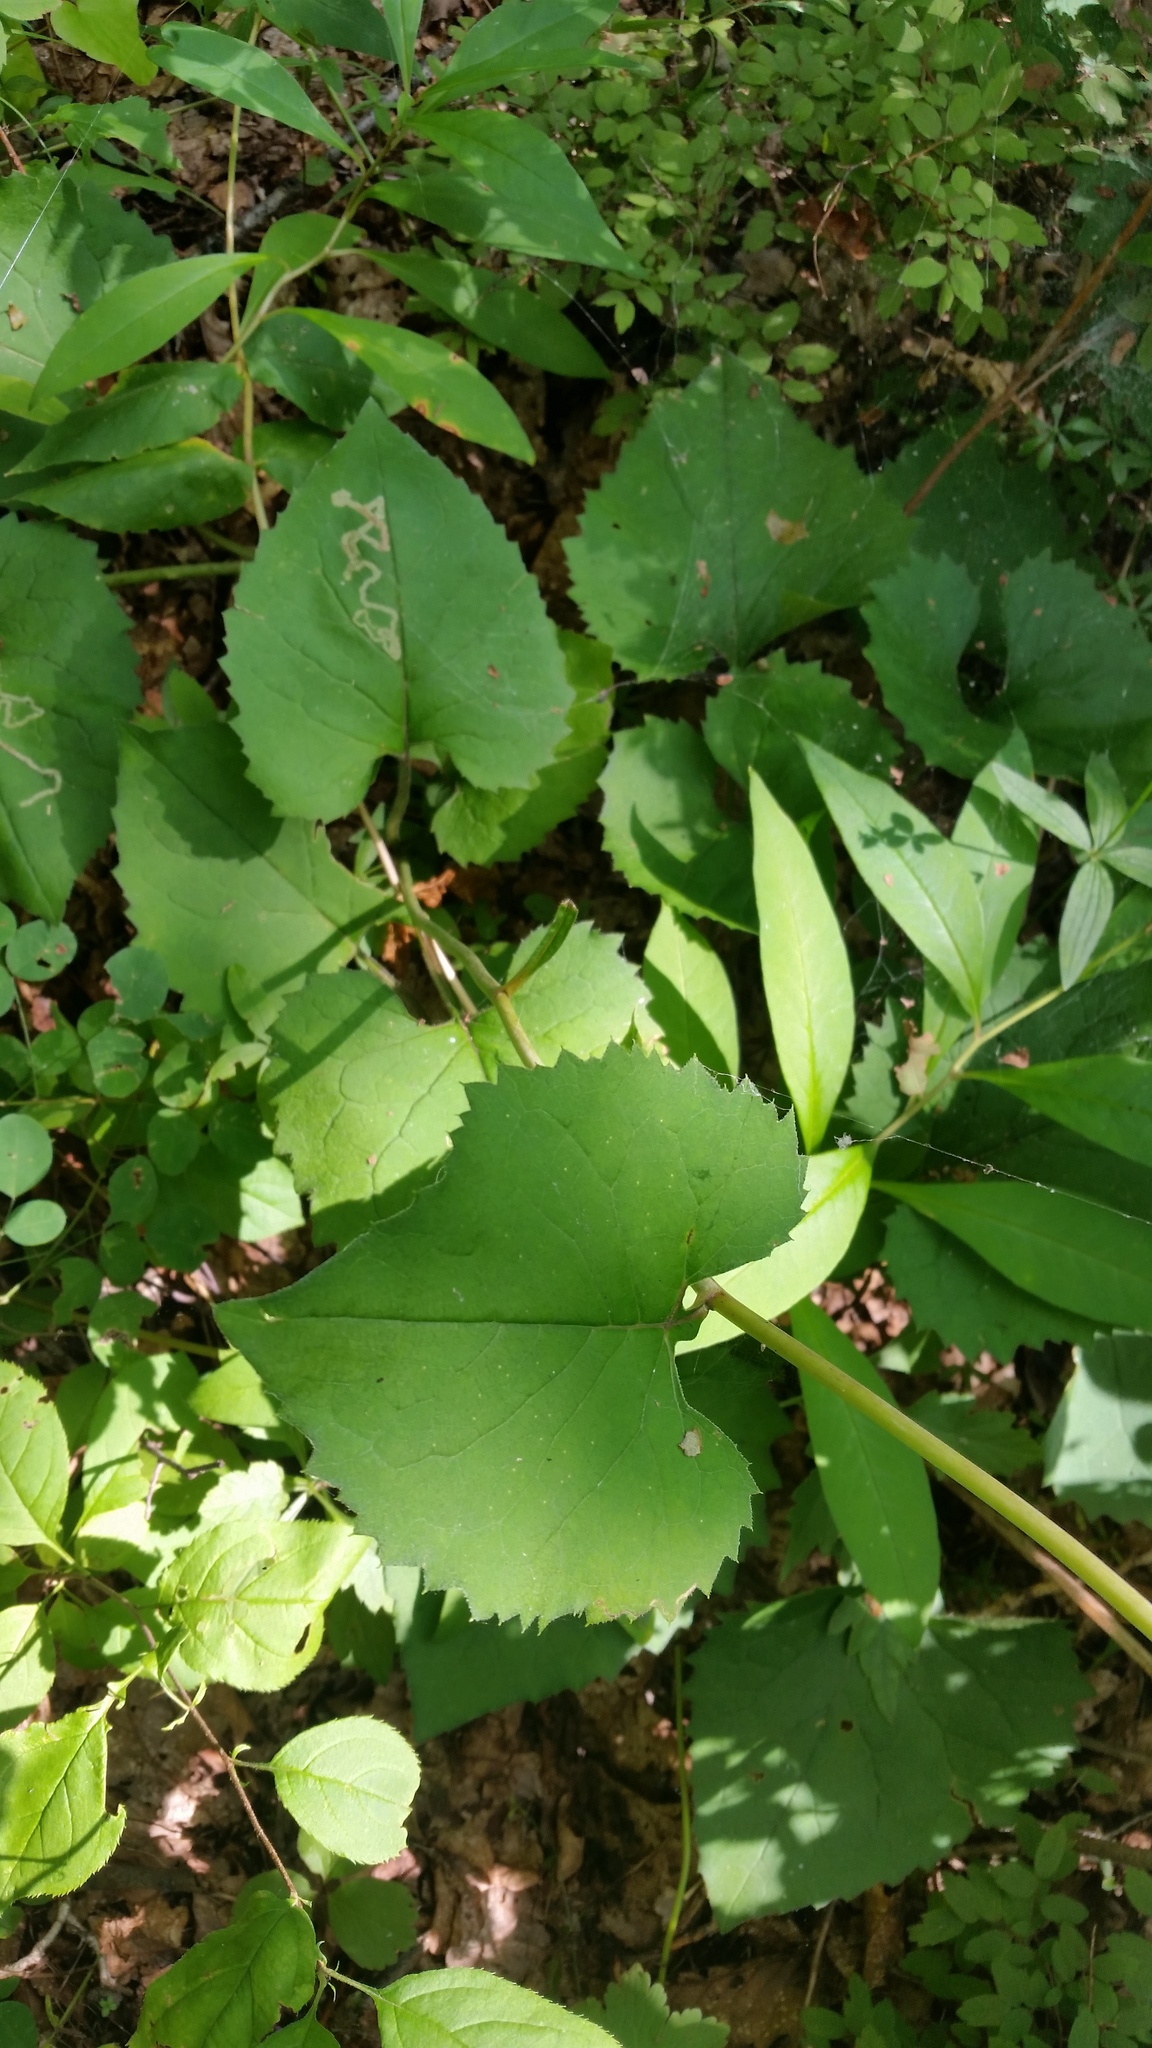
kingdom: Plantae
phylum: Tracheophyta
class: Magnoliopsida
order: Asterales
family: Asteraceae
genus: Aster
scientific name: Aster scaber
